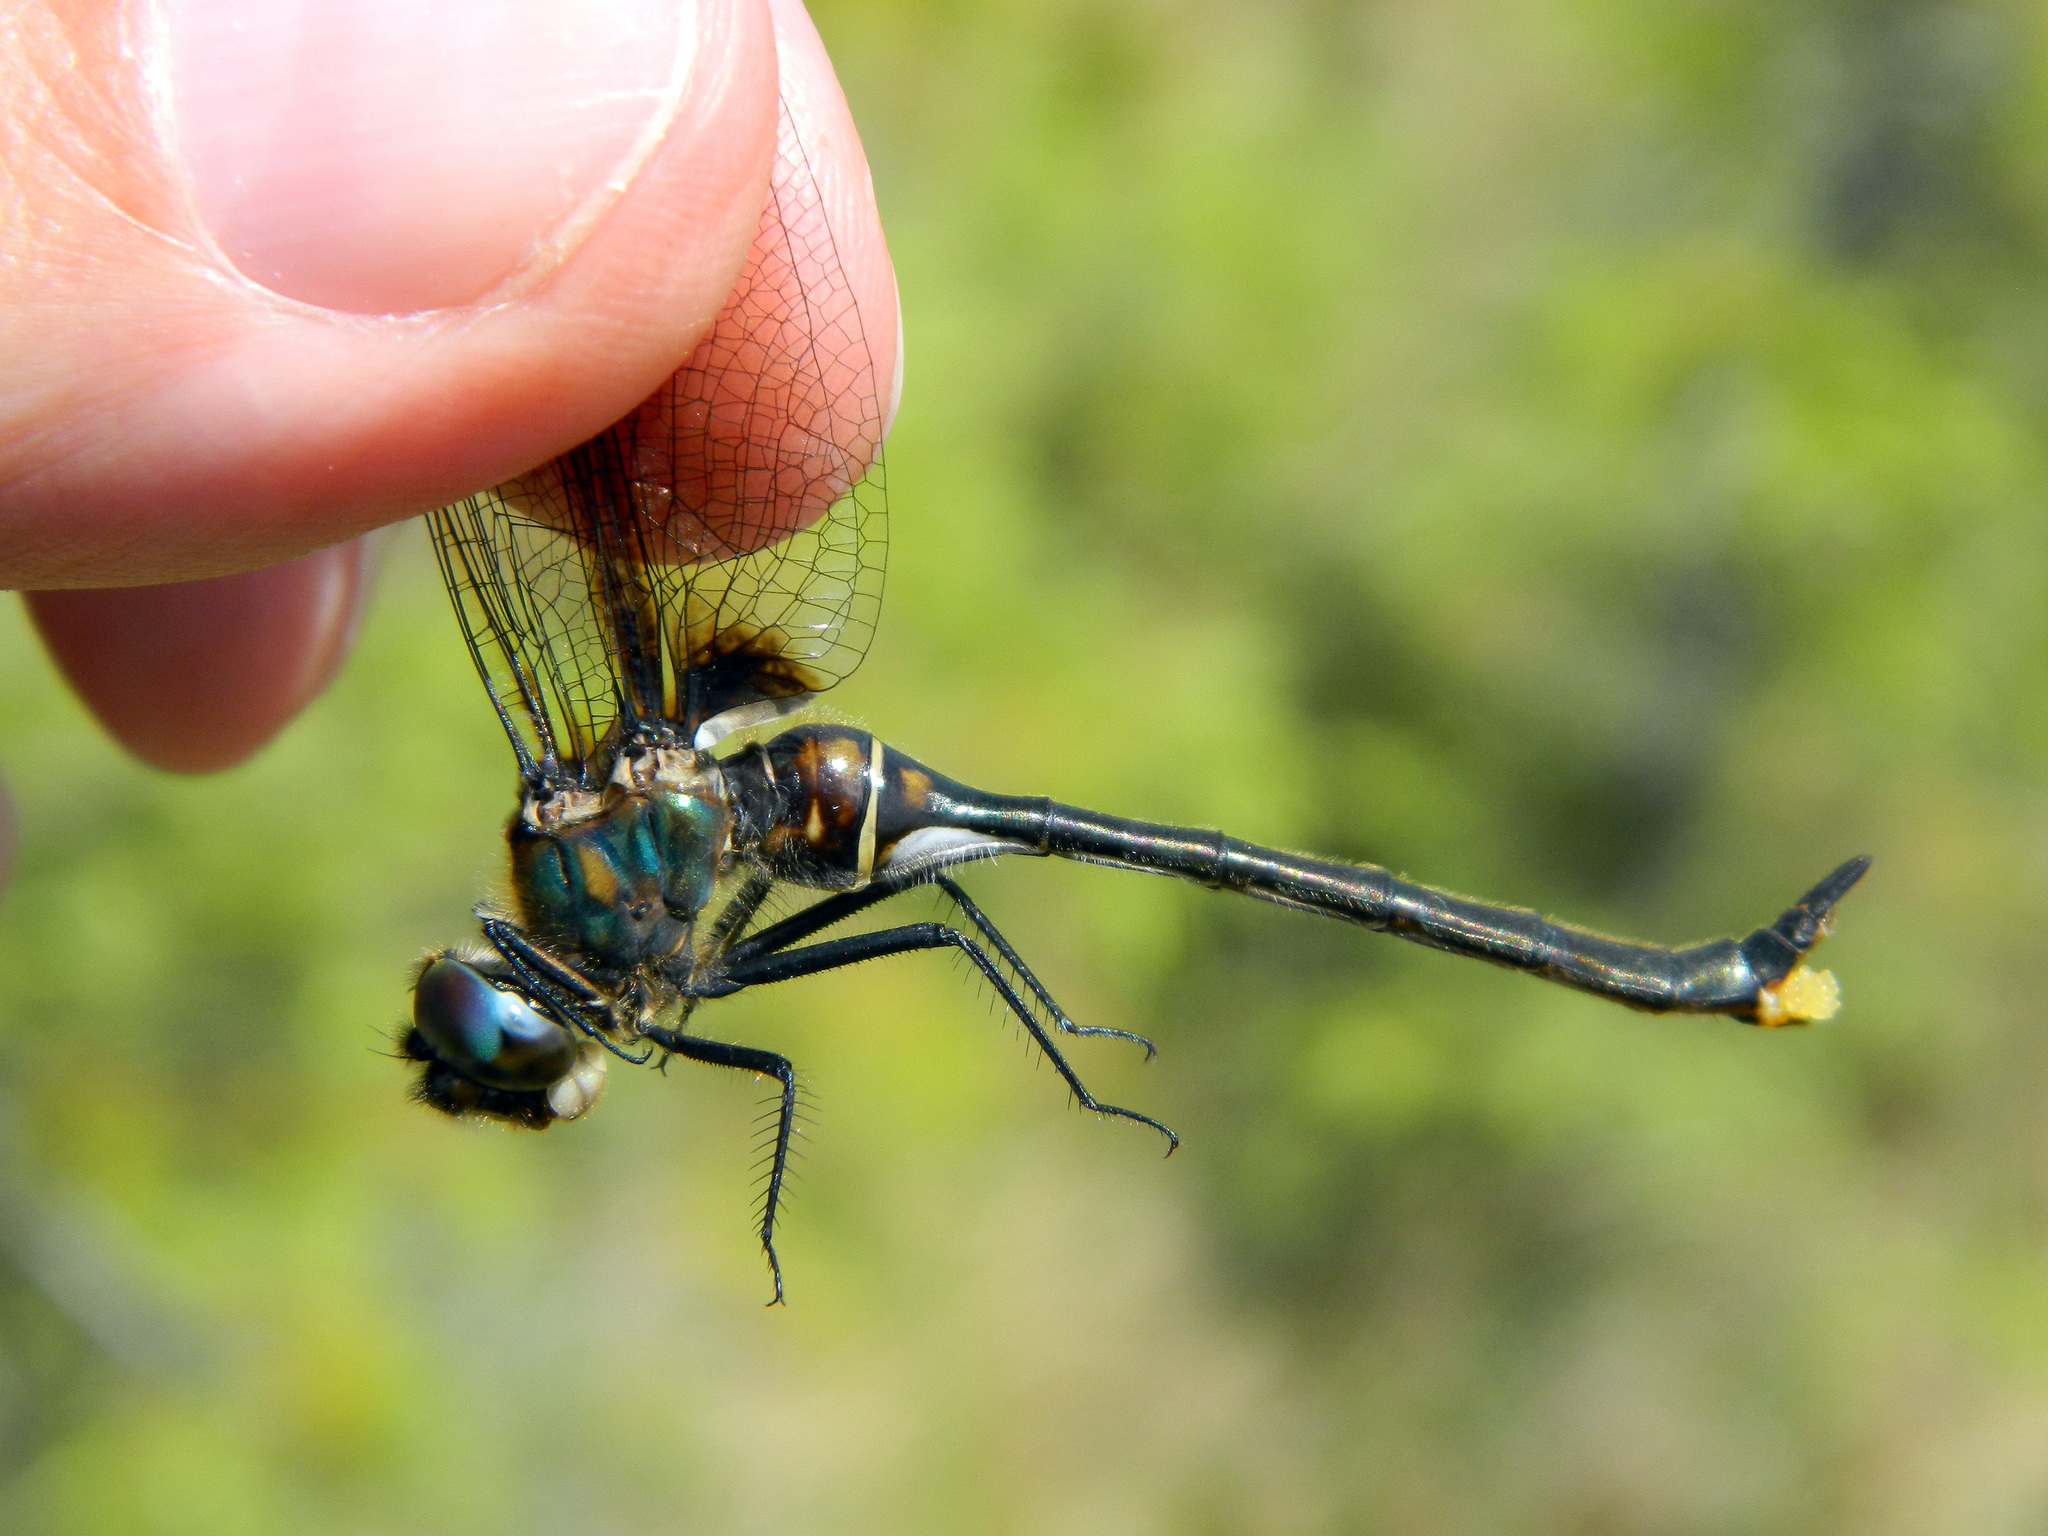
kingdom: Animalia
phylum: Arthropoda
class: Insecta
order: Odonata
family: Corduliidae
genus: Somatochlora
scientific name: Somatochlora franklini
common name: Delicate emerald
